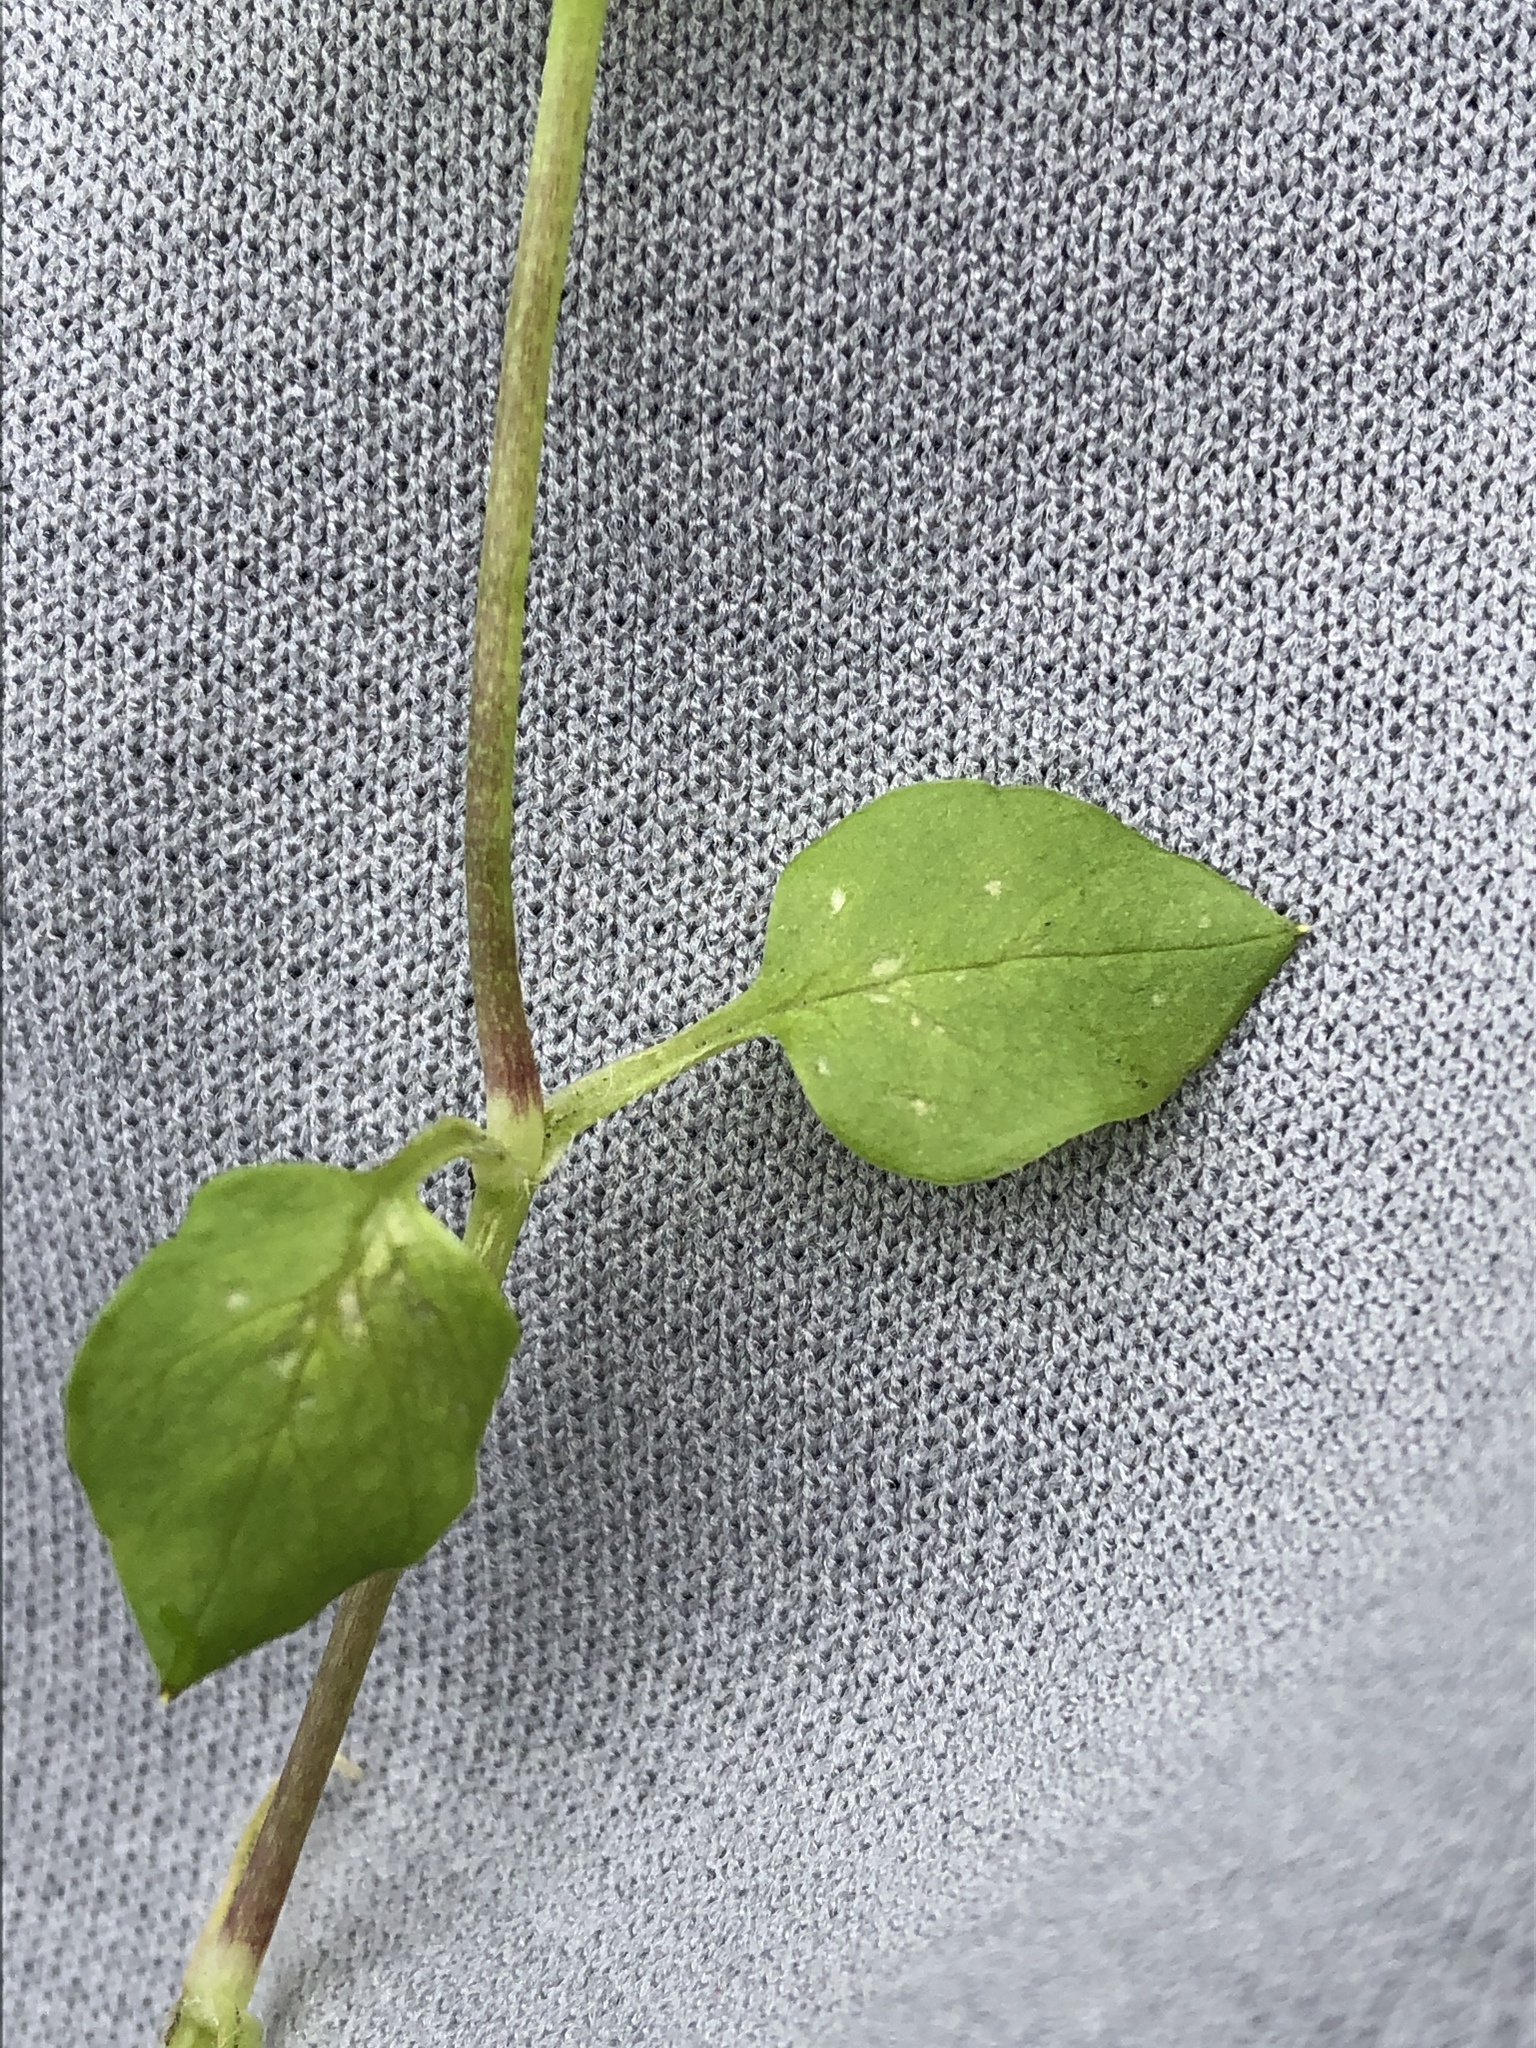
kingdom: Plantae
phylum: Tracheophyta
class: Magnoliopsida
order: Caryophyllales
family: Caryophyllaceae
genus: Stellaria
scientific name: Stellaria media
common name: Common chickweed
